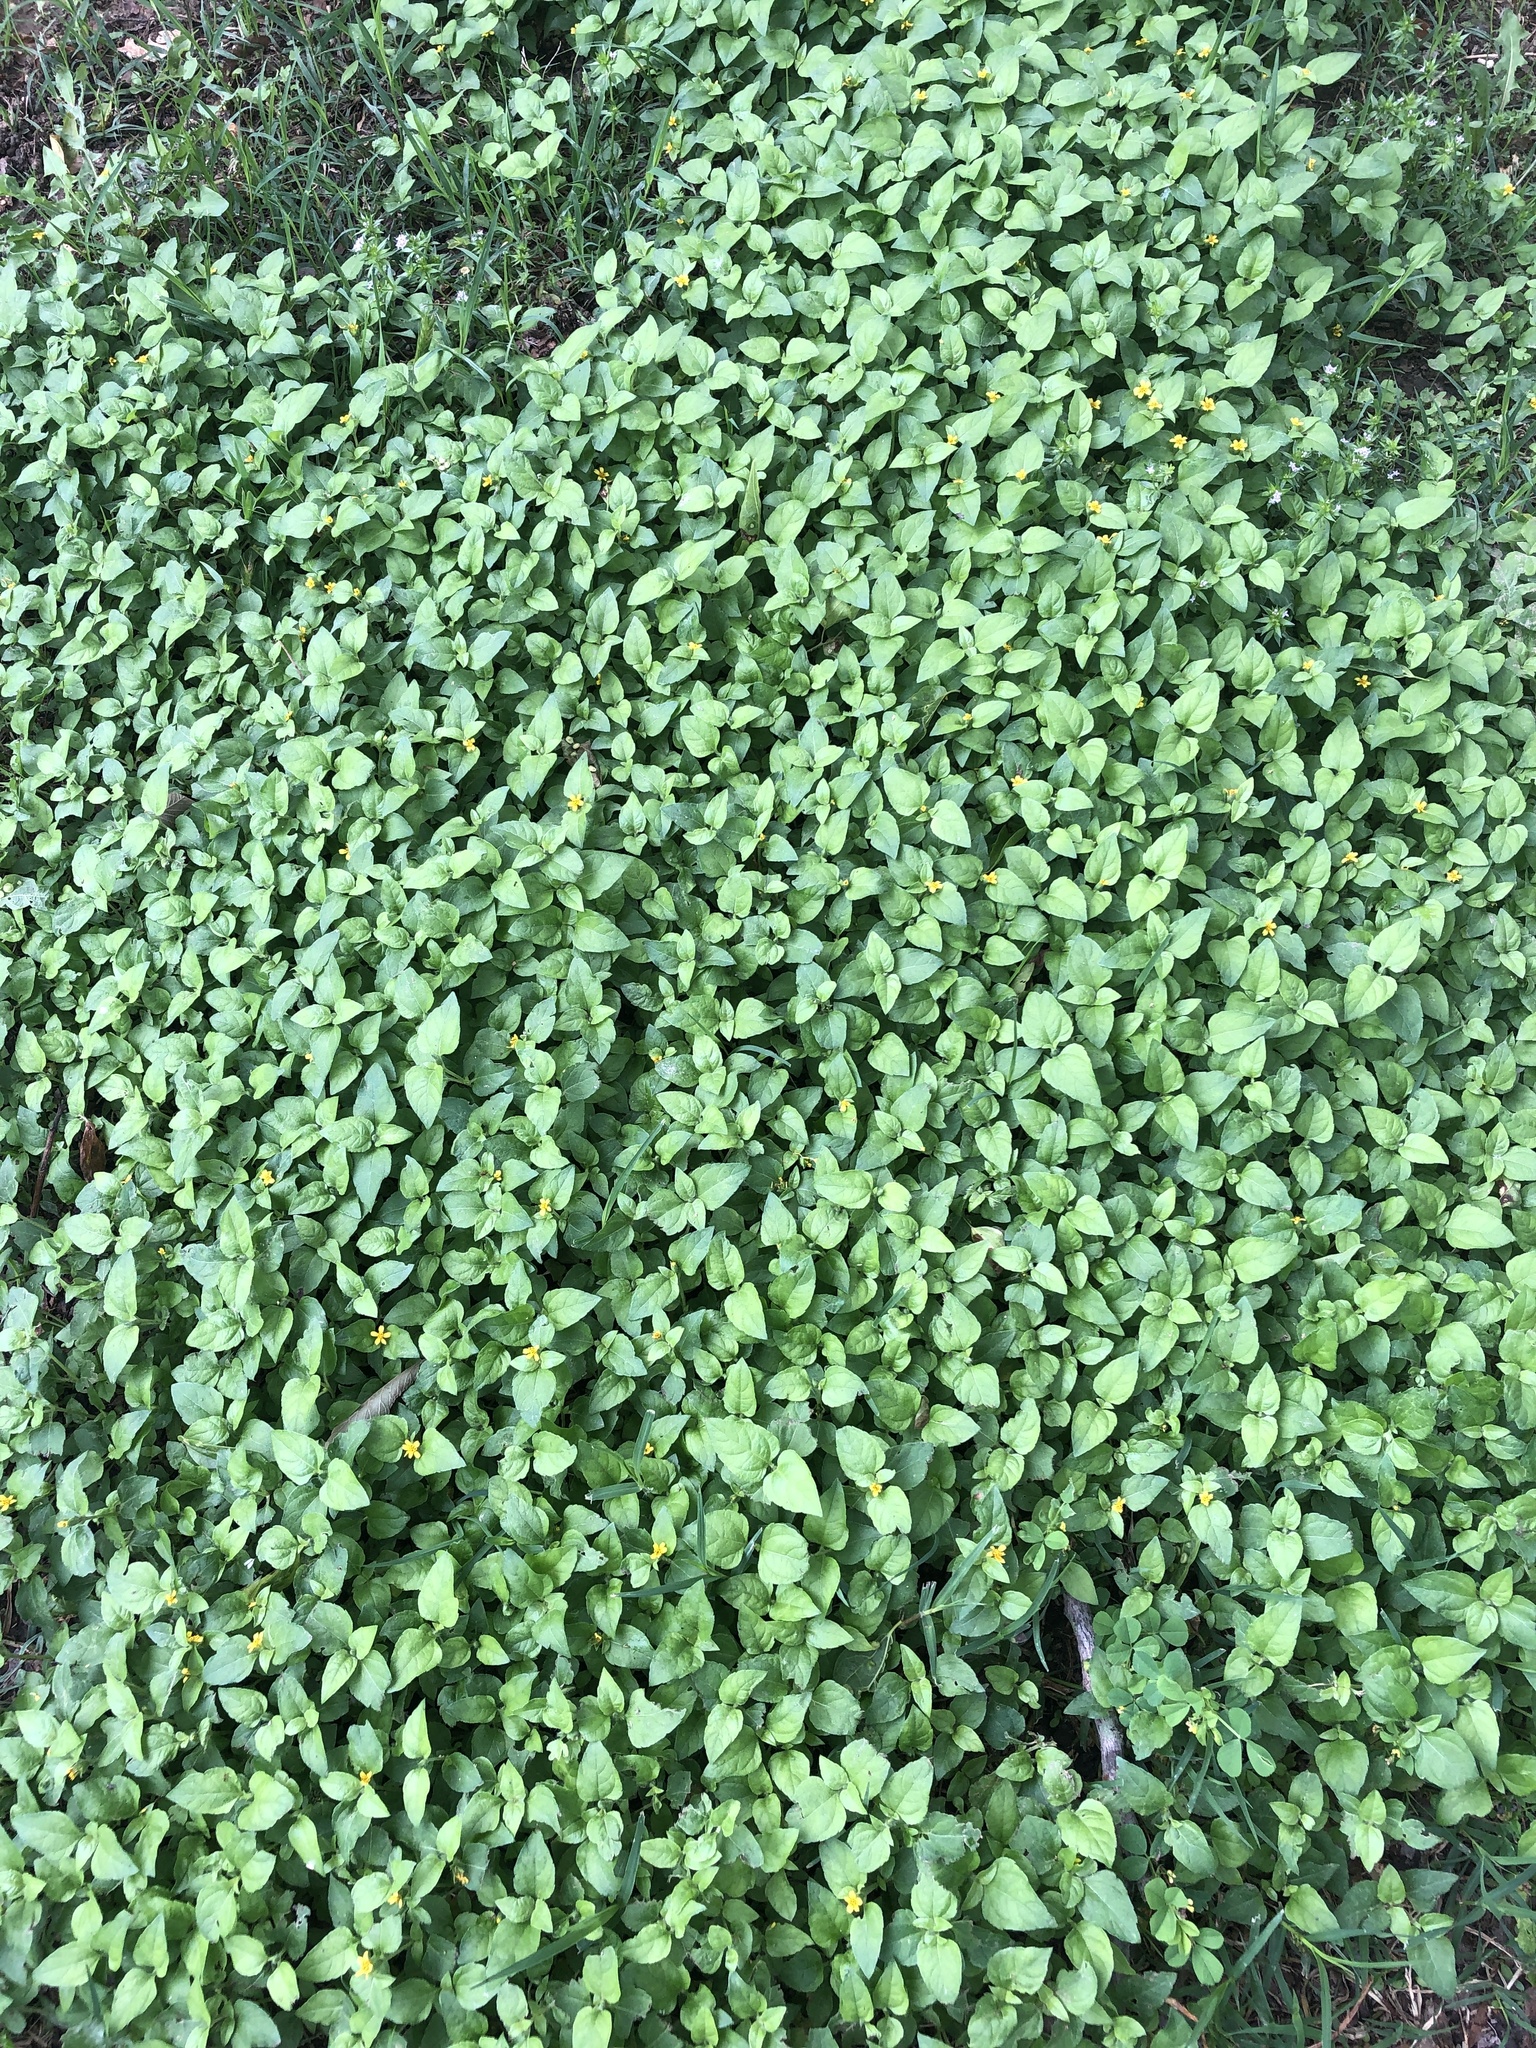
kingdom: Plantae
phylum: Tracheophyta
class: Magnoliopsida
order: Asterales
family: Asteraceae
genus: Calyptocarpus
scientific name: Calyptocarpus vialis
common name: Straggler daisy
